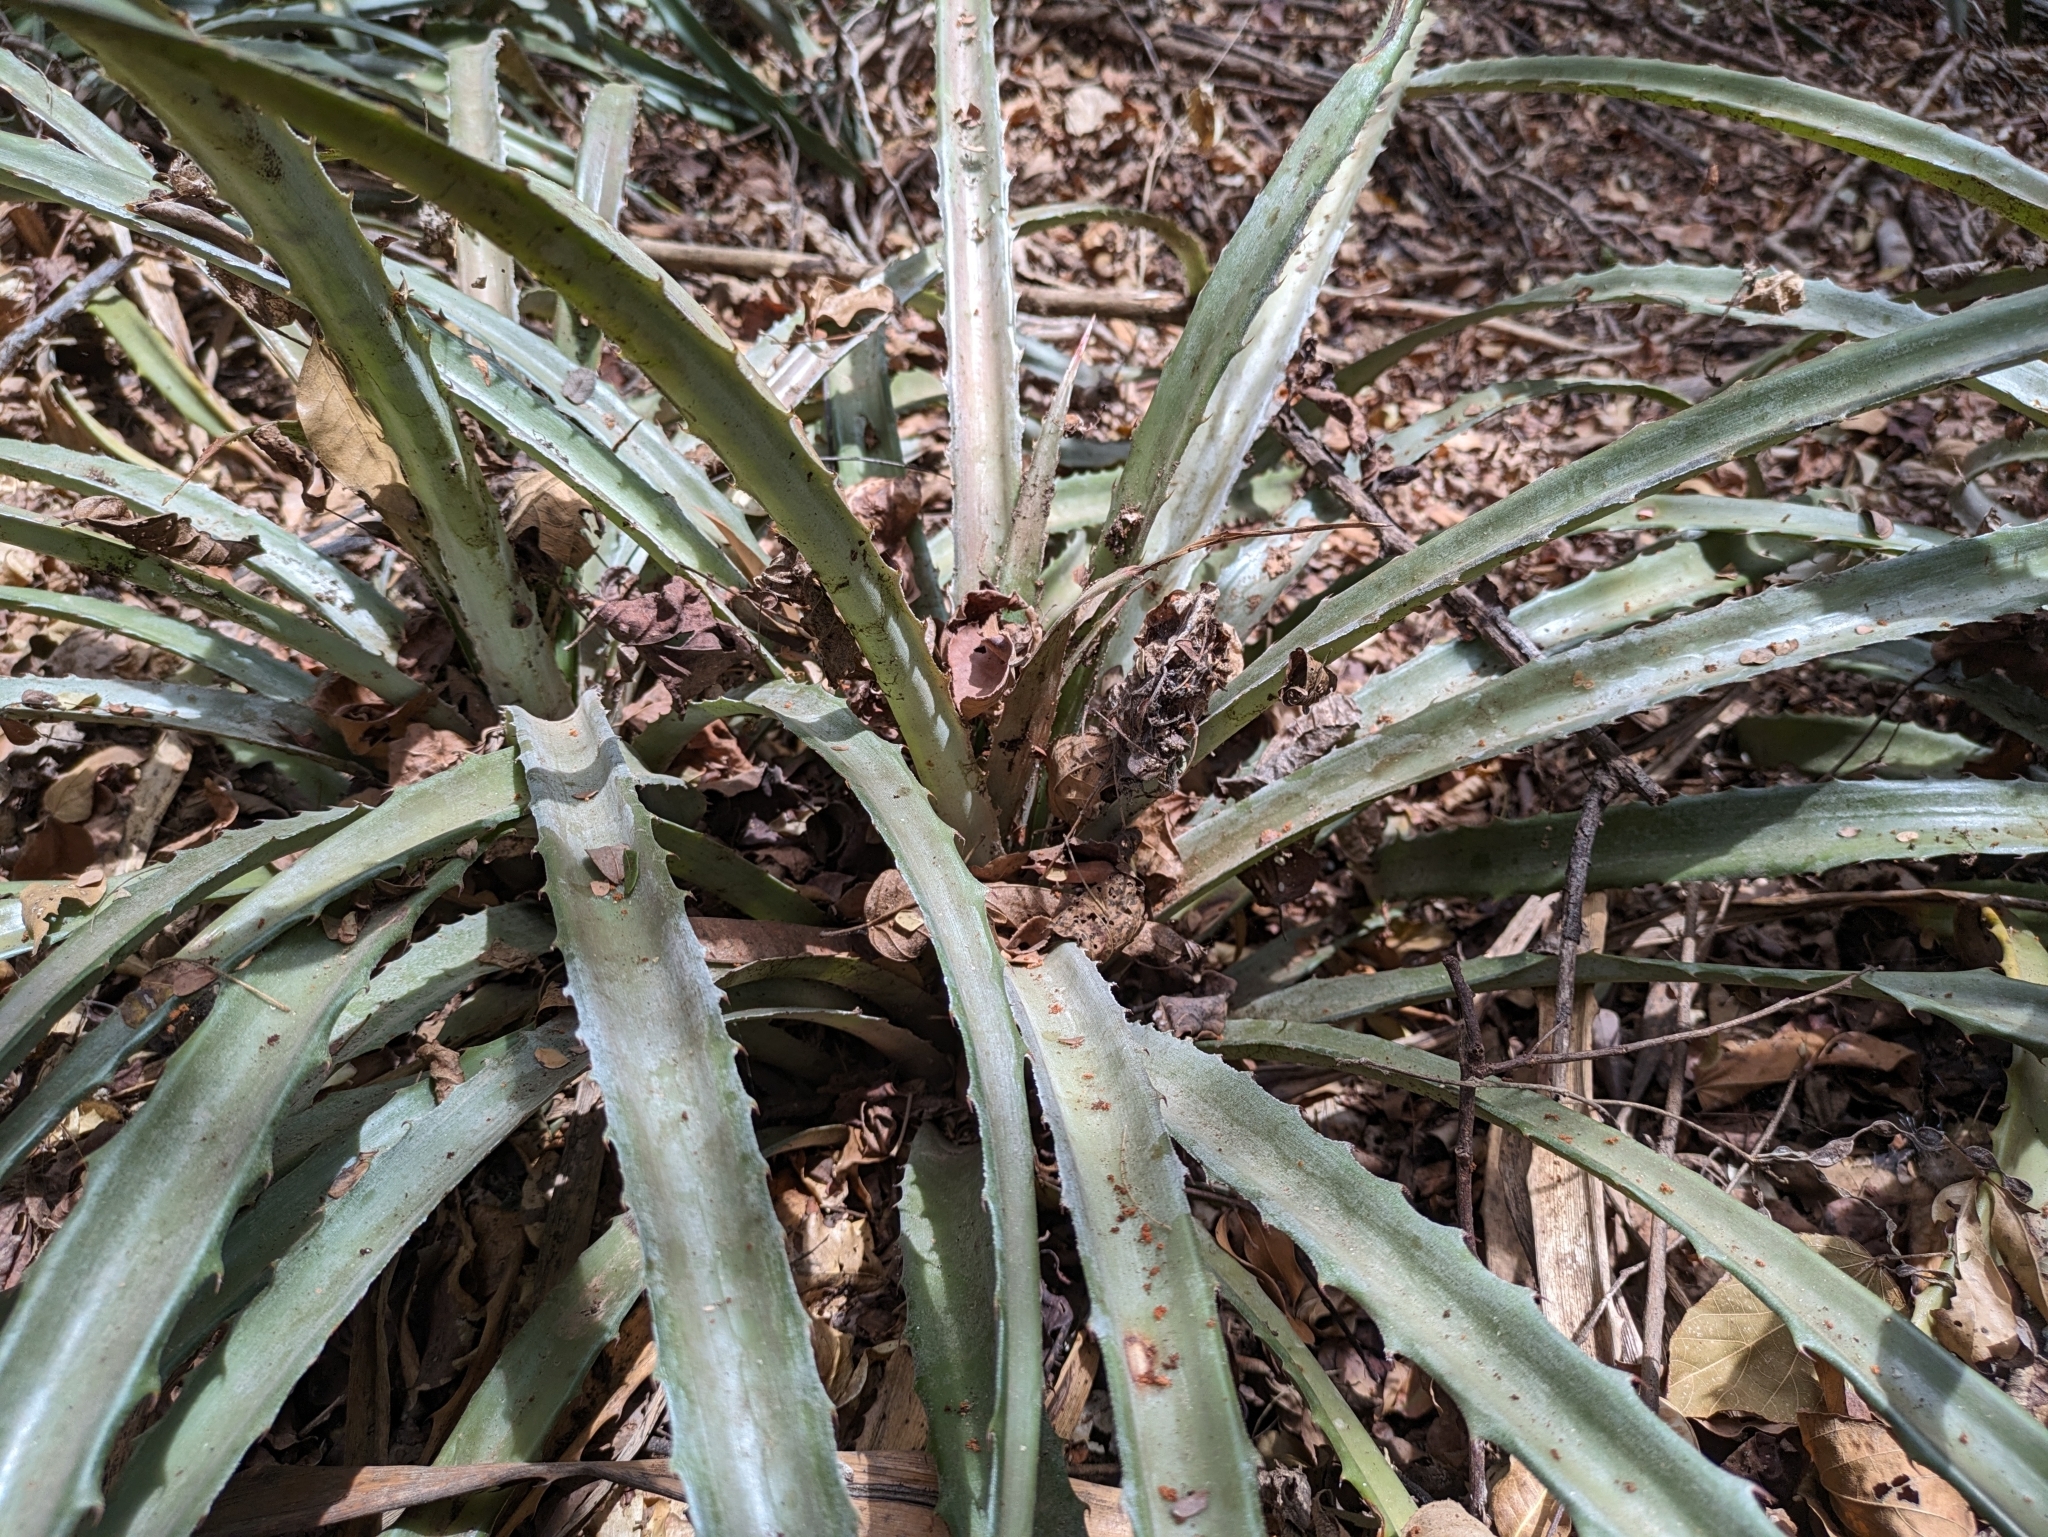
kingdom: Plantae
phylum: Tracheophyta
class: Liliopsida
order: Poales
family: Bromeliaceae
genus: Bromelia
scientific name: Bromelia pinguin
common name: Pinguin
